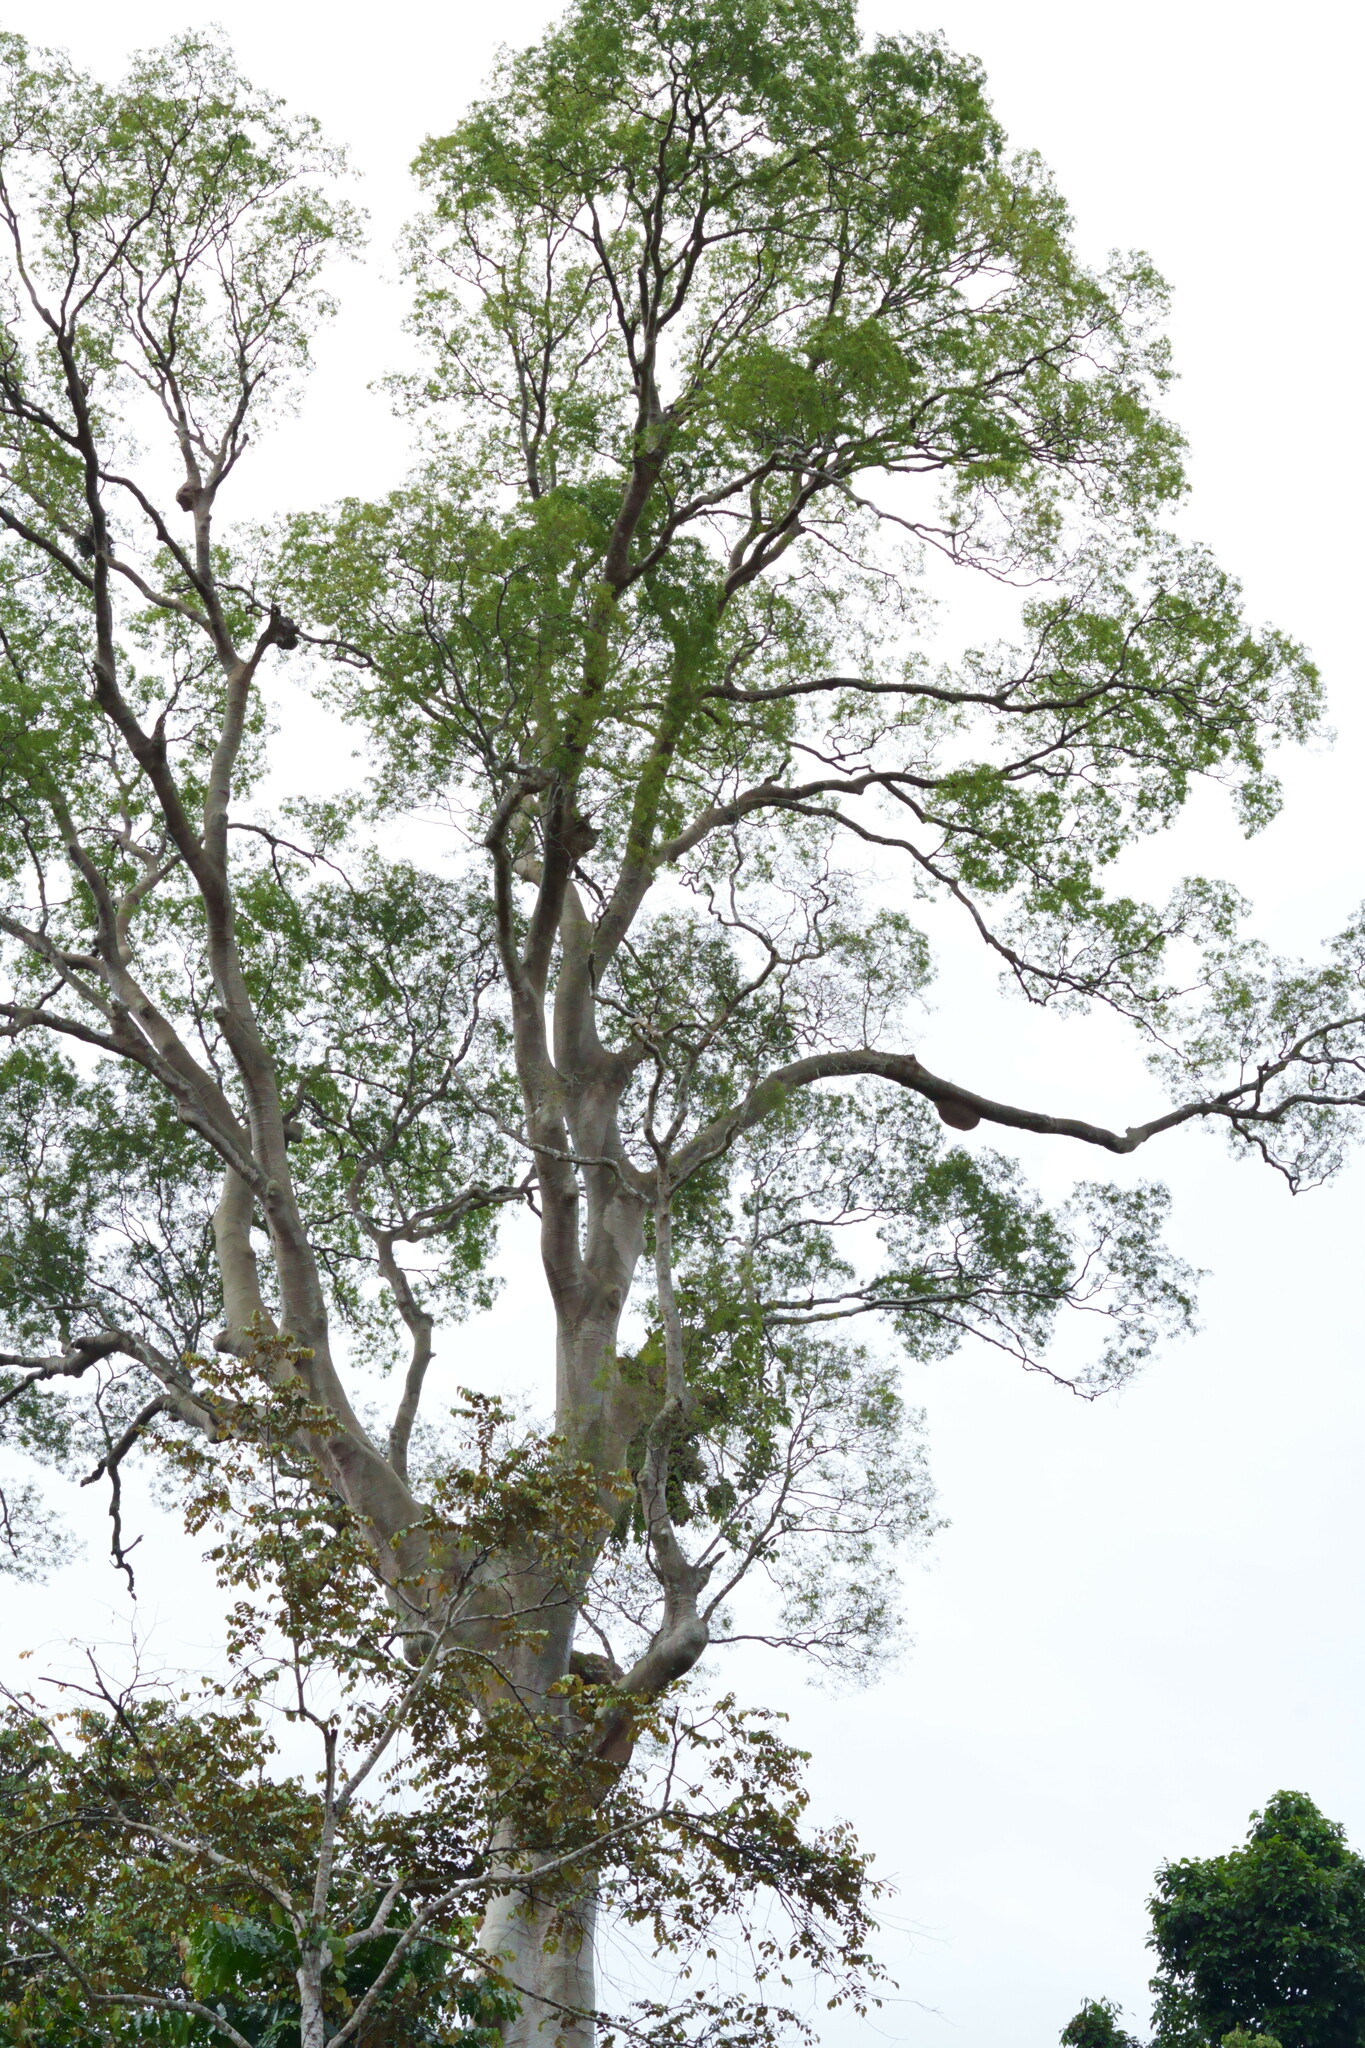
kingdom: Plantae
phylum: Tracheophyta
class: Magnoliopsida
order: Fabales
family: Fabaceae
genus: Koompassia
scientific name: Koompassia excelsa
